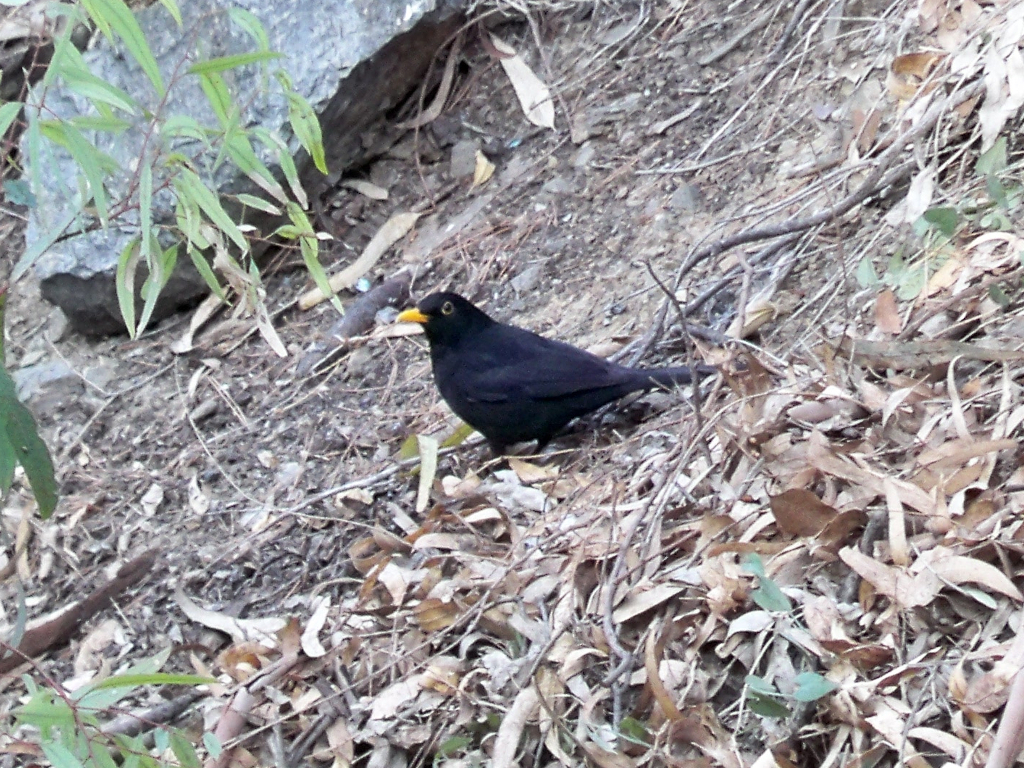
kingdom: Animalia
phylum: Chordata
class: Aves
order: Passeriformes
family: Turdidae
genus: Turdus
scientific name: Turdus merula
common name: Common blackbird
